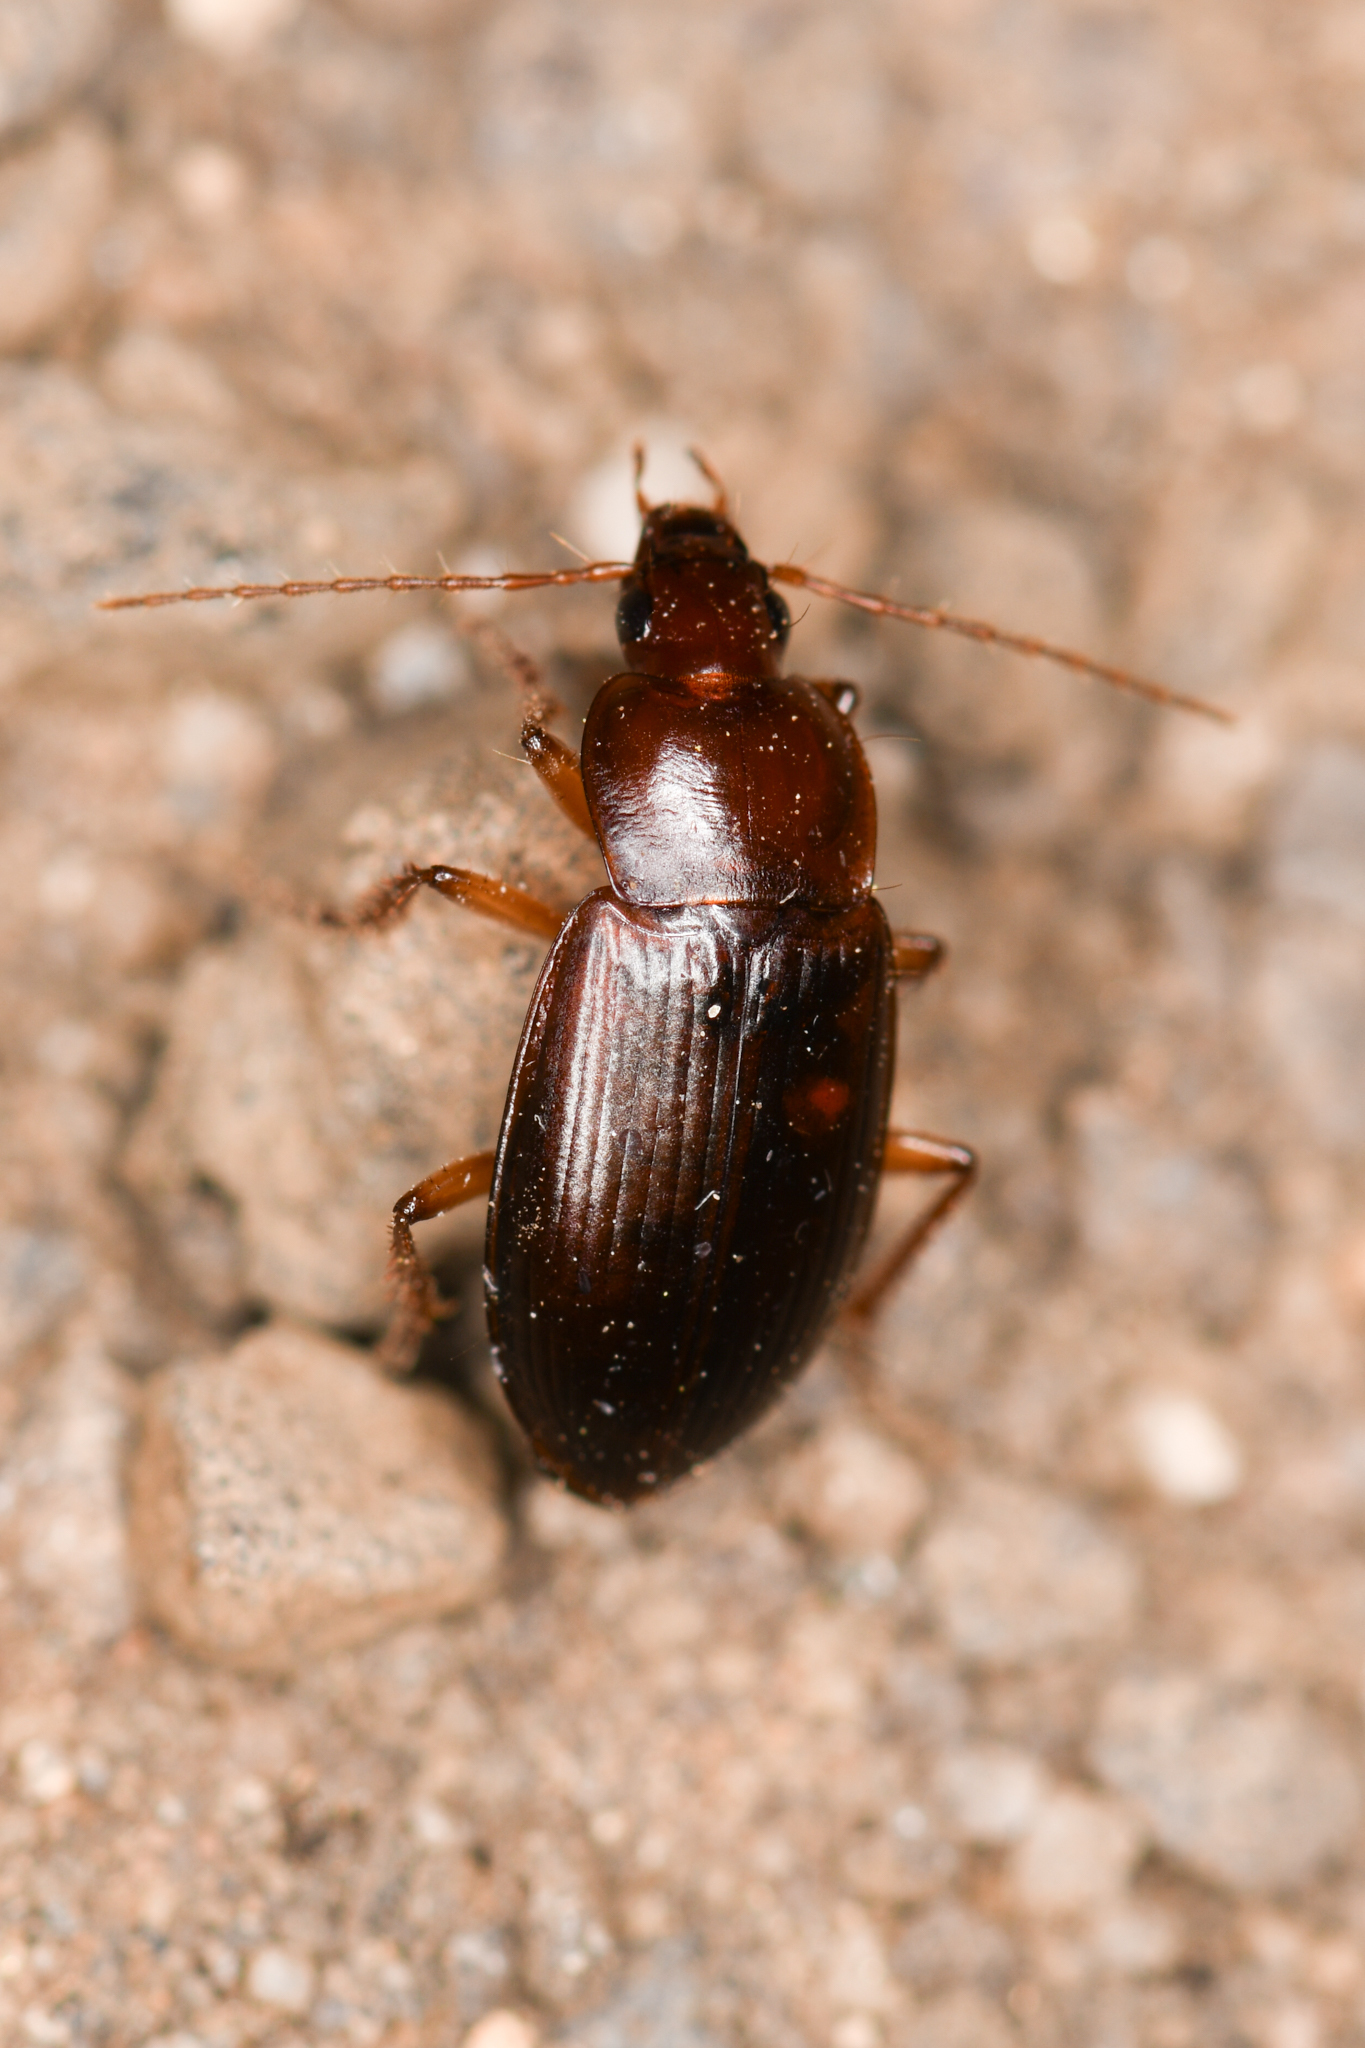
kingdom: Animalia
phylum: Arthropoda
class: Insecta
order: Coleoptera
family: Carabidae
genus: Calathus
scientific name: Calathus ruficollis
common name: Red-collared harp ground beetle
